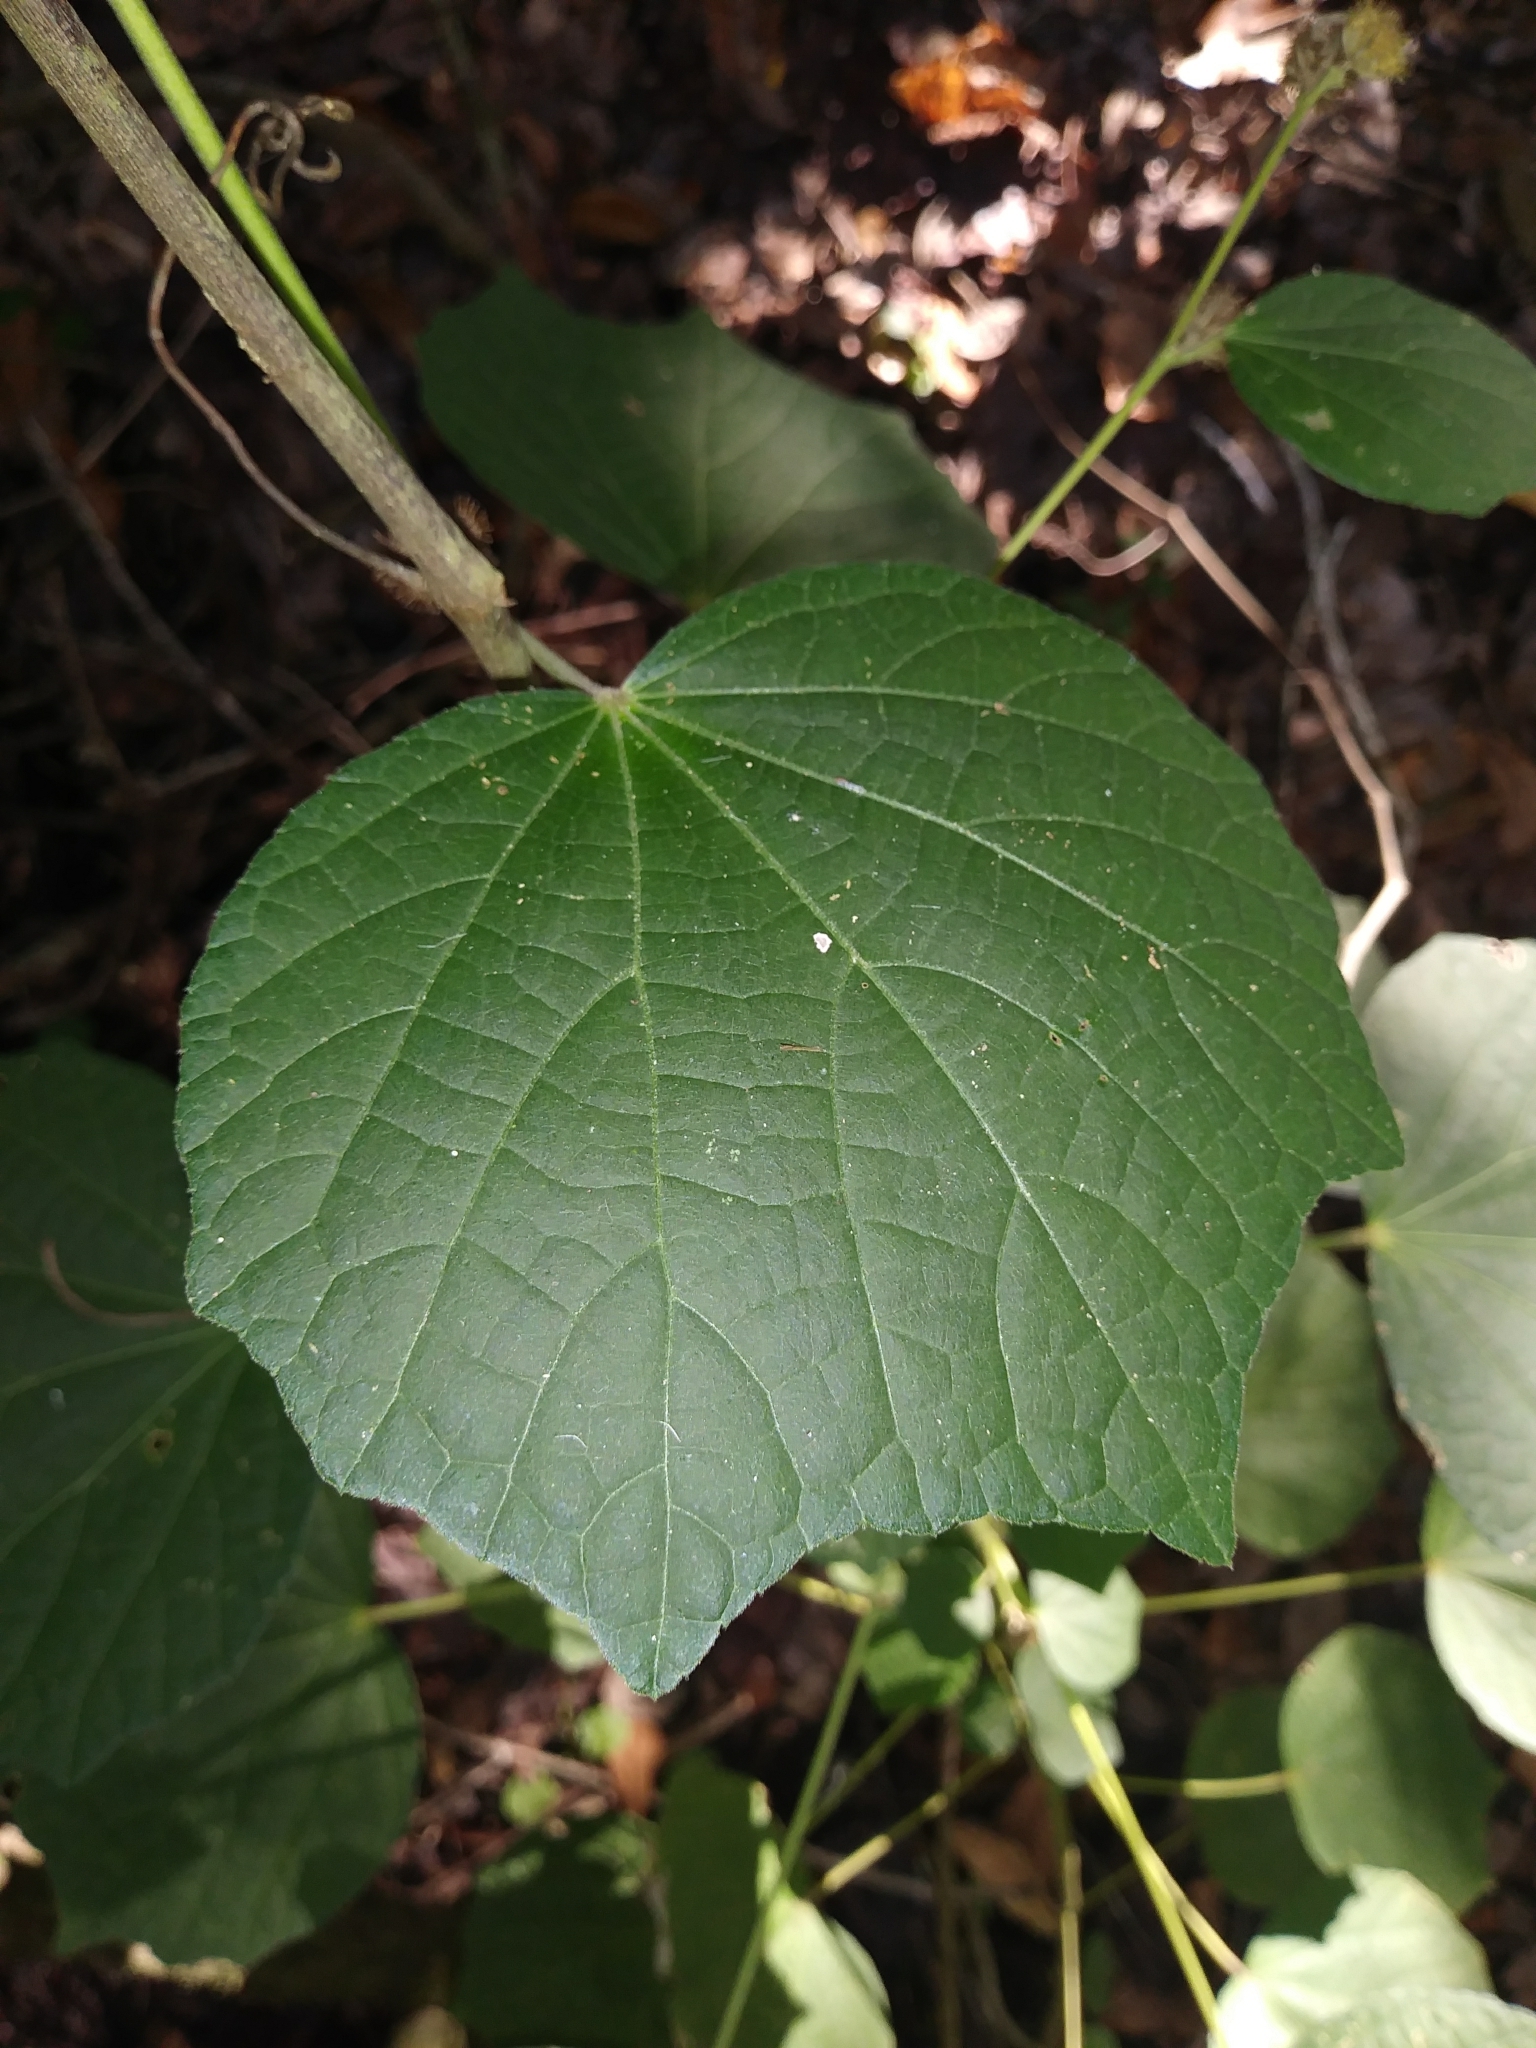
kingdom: Plantae
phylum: Tracheophyta
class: Magnoliopsida
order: Malvales
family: Malvaceae
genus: Urena
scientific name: Urena lobata
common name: Caesarweed
